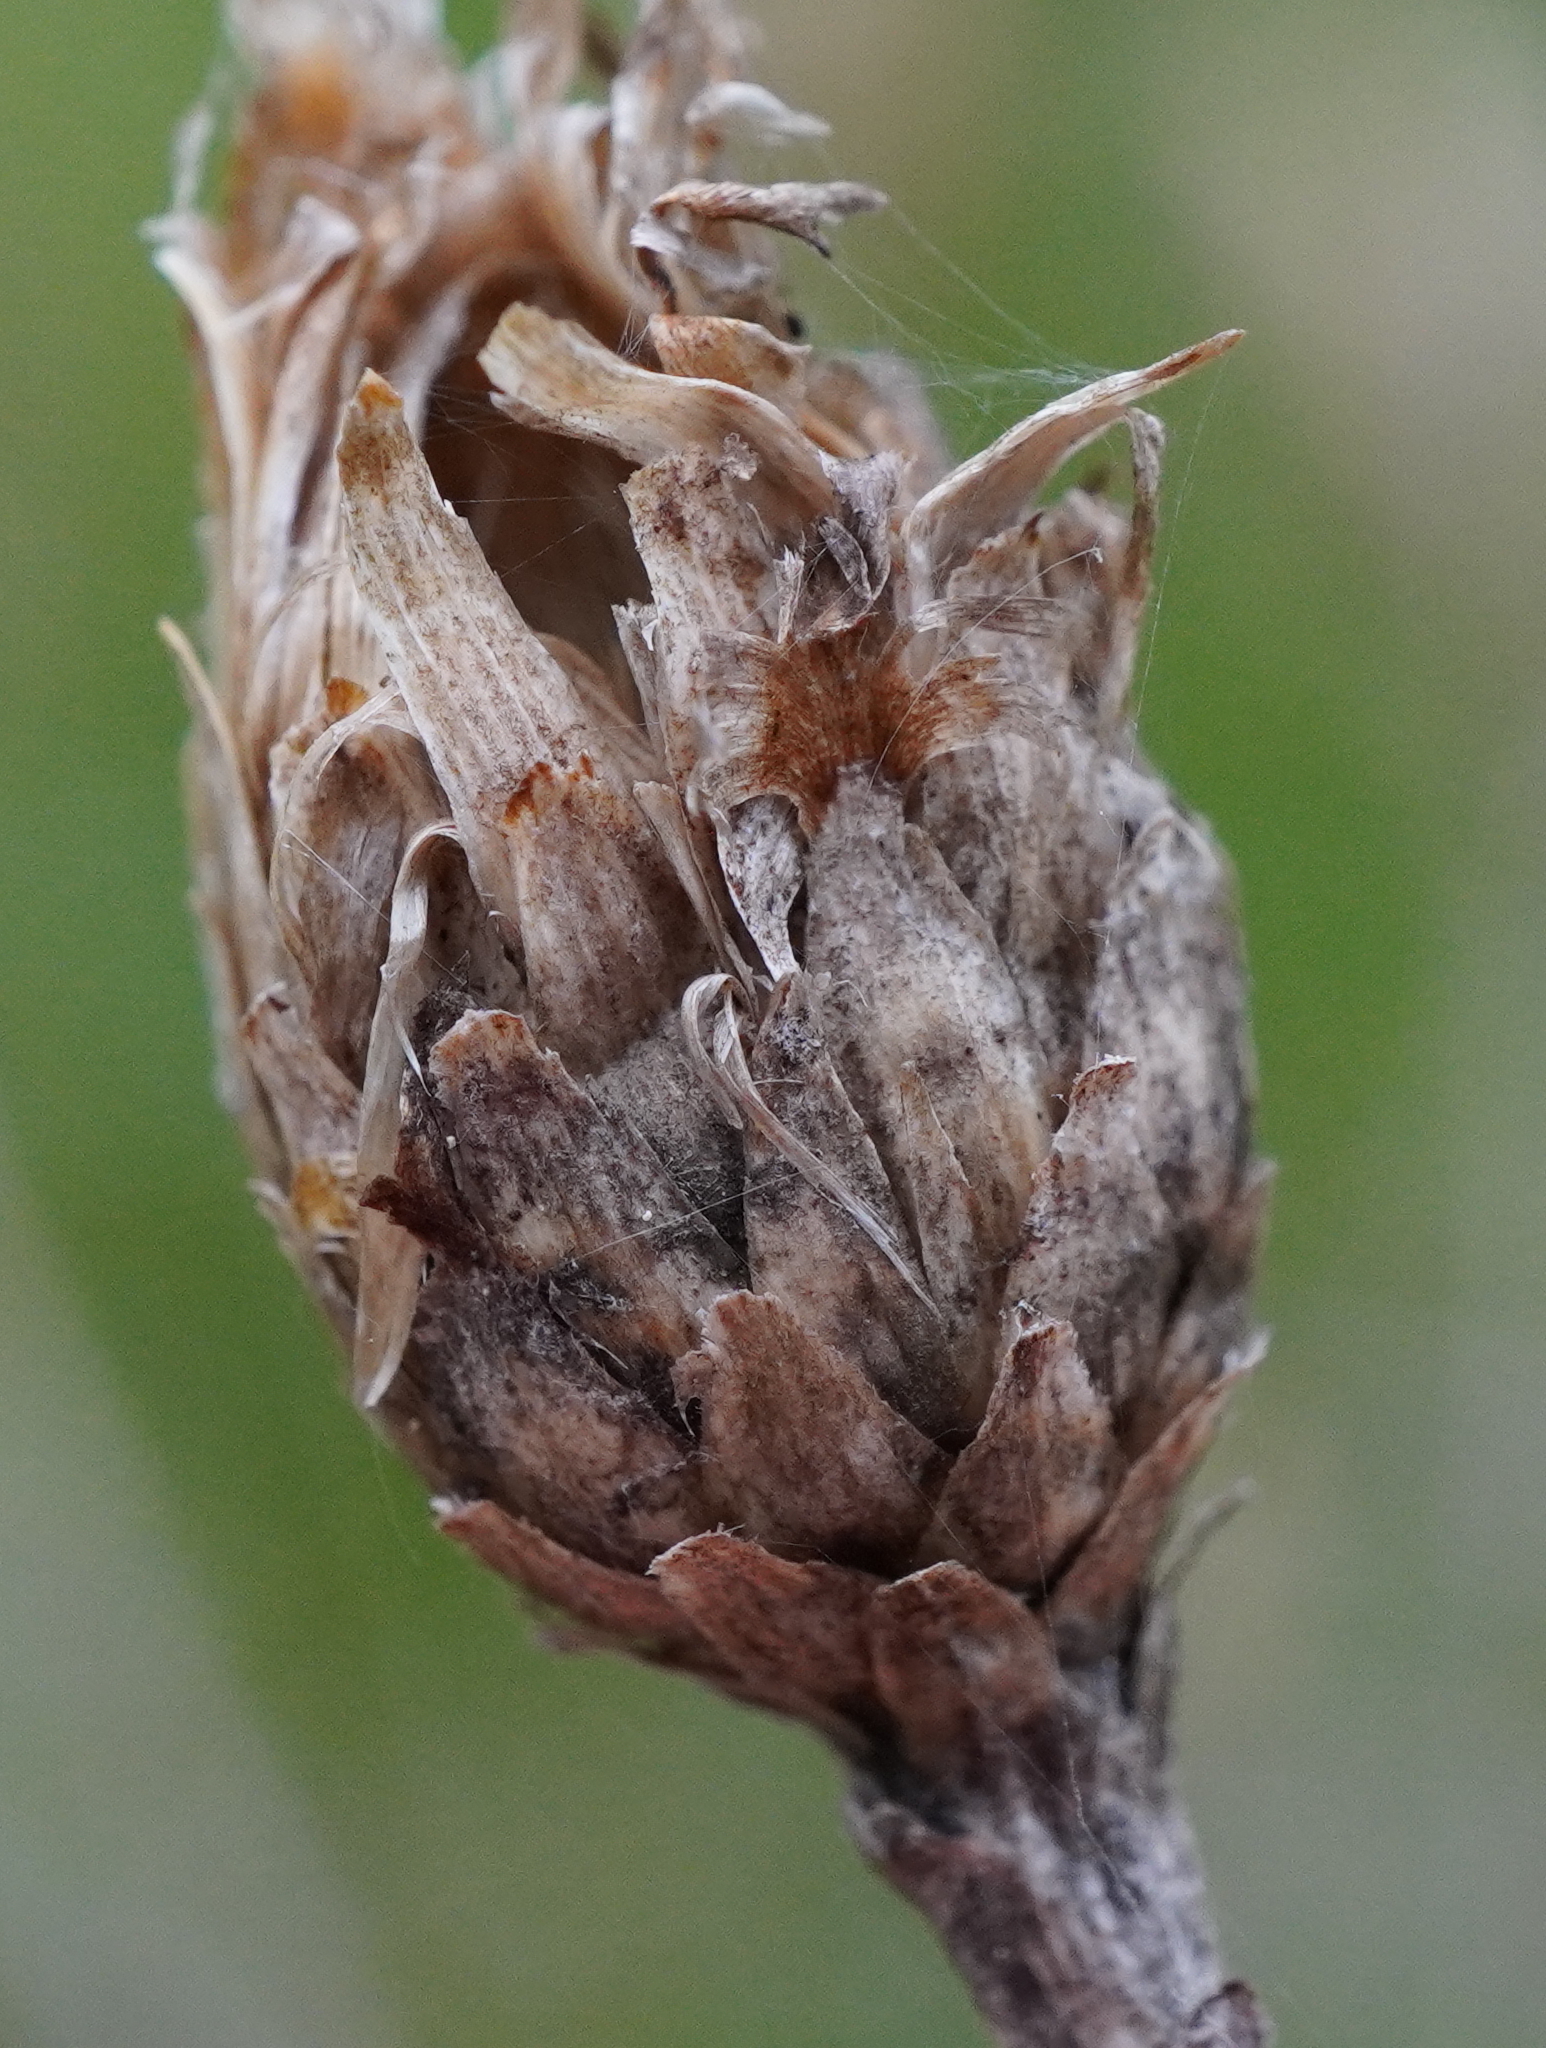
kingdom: Plantae
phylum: Tracheophyta
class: Magnoliopsida
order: Asterales
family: Asteraceae
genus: Centaurea
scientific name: Centaurea jacea
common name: Brown knapweed
